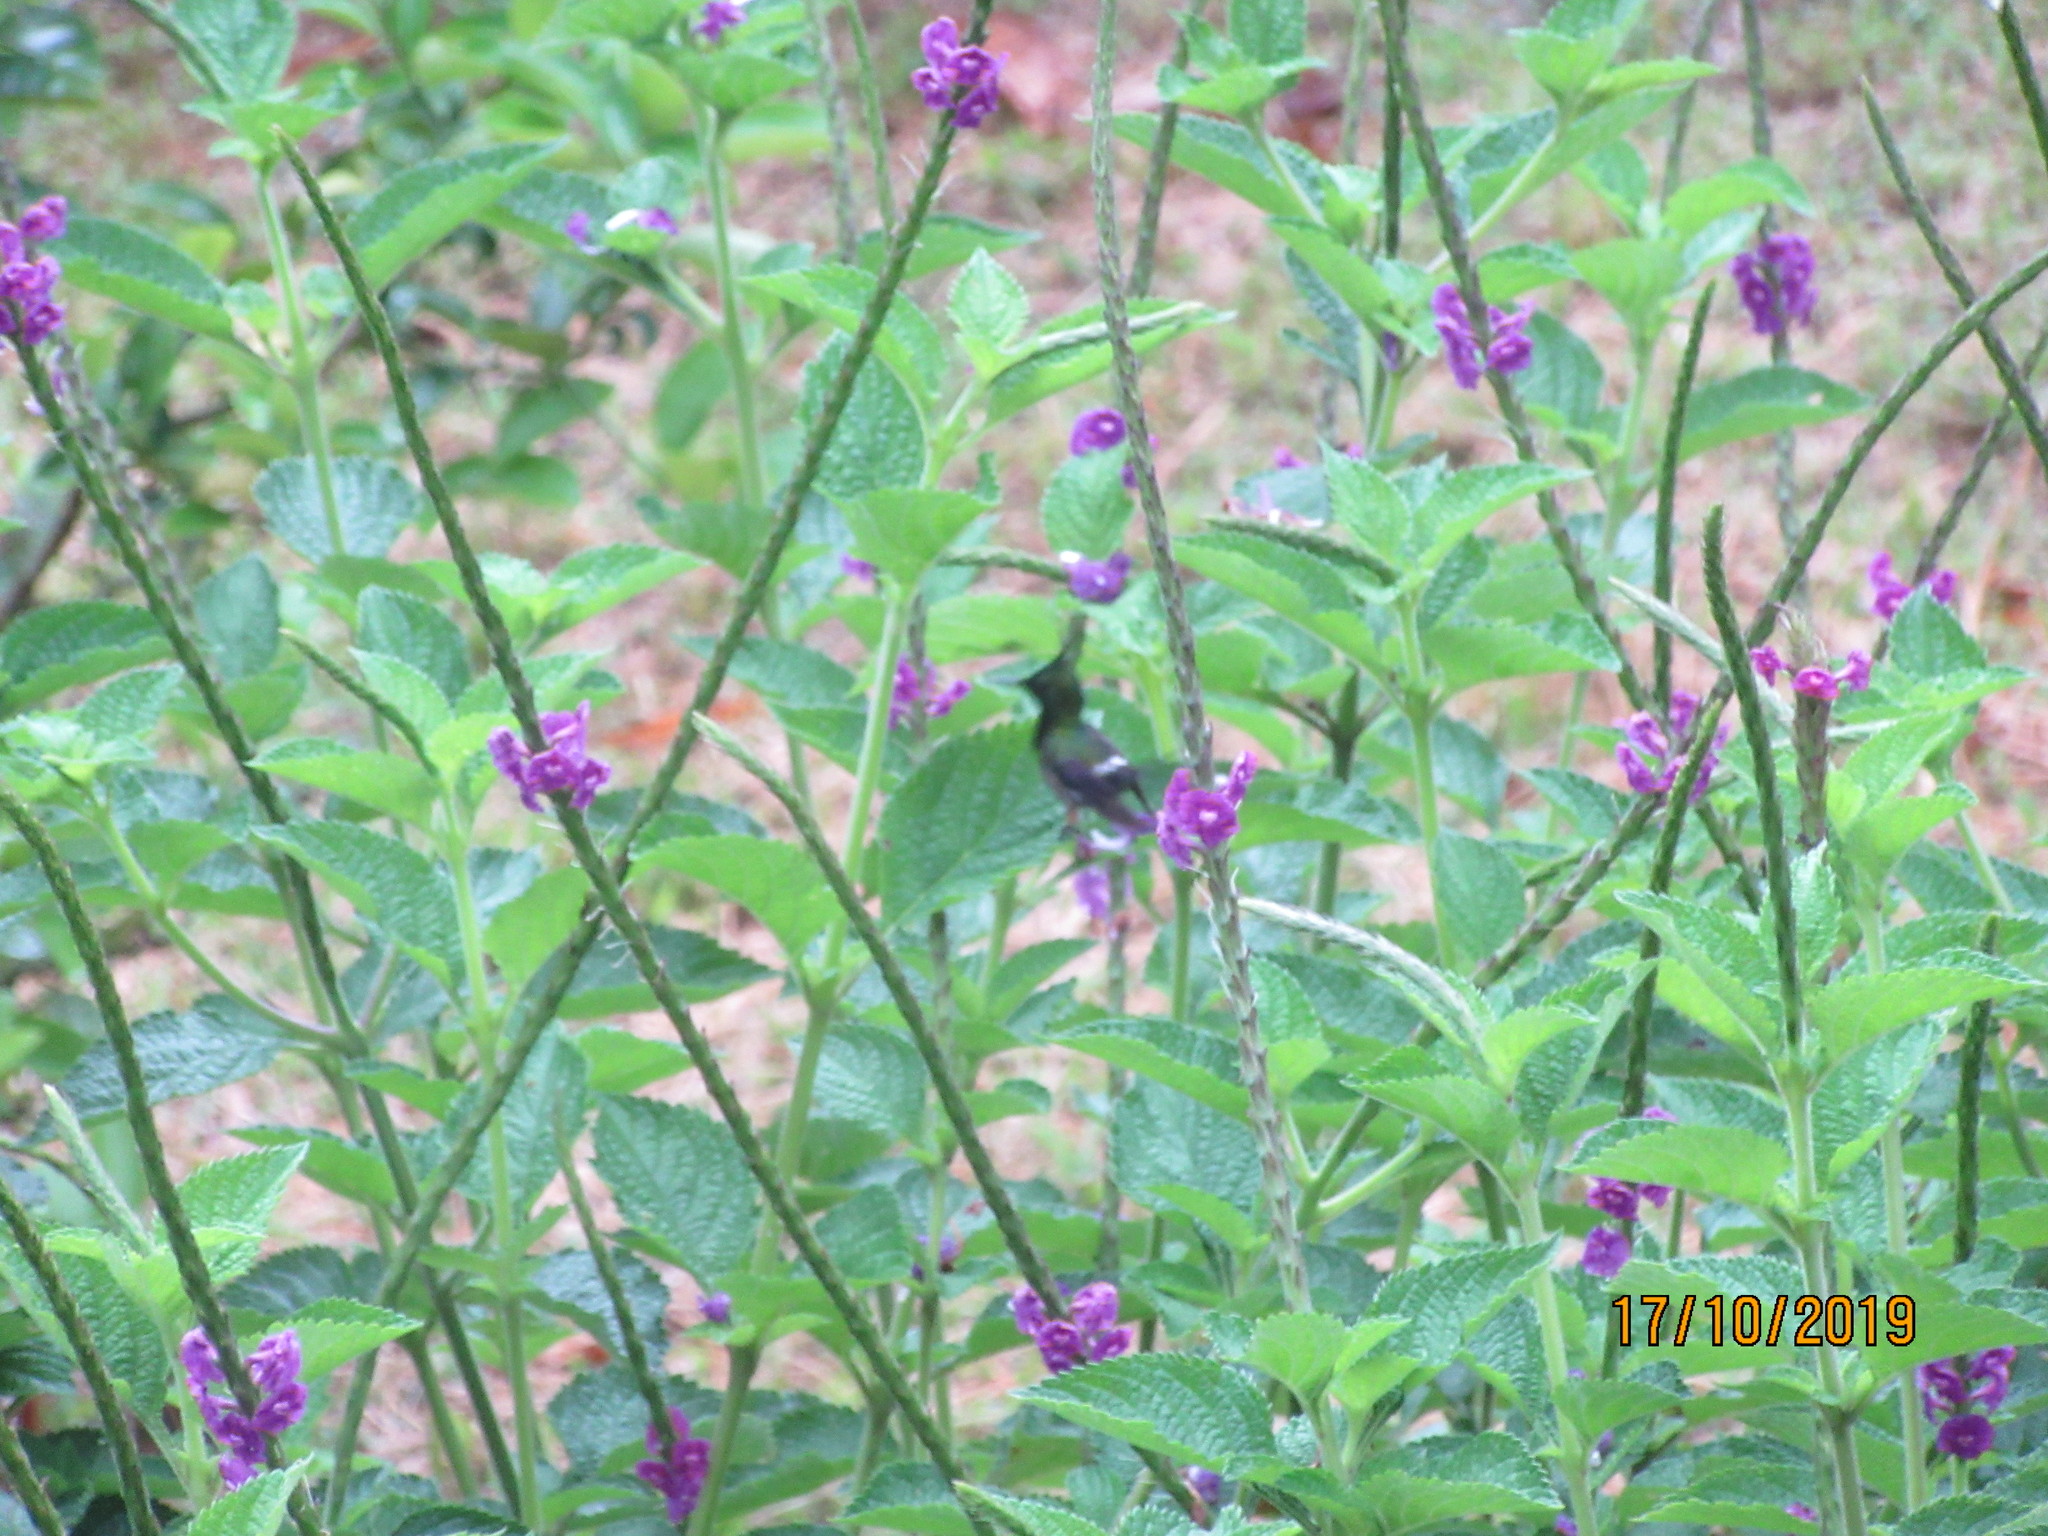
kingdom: Animalia
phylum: Chordata
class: Aves
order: Apodiformes
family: Trochilidae
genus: Discosura
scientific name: Discosura popelairii
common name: Wire-crested thorntail
